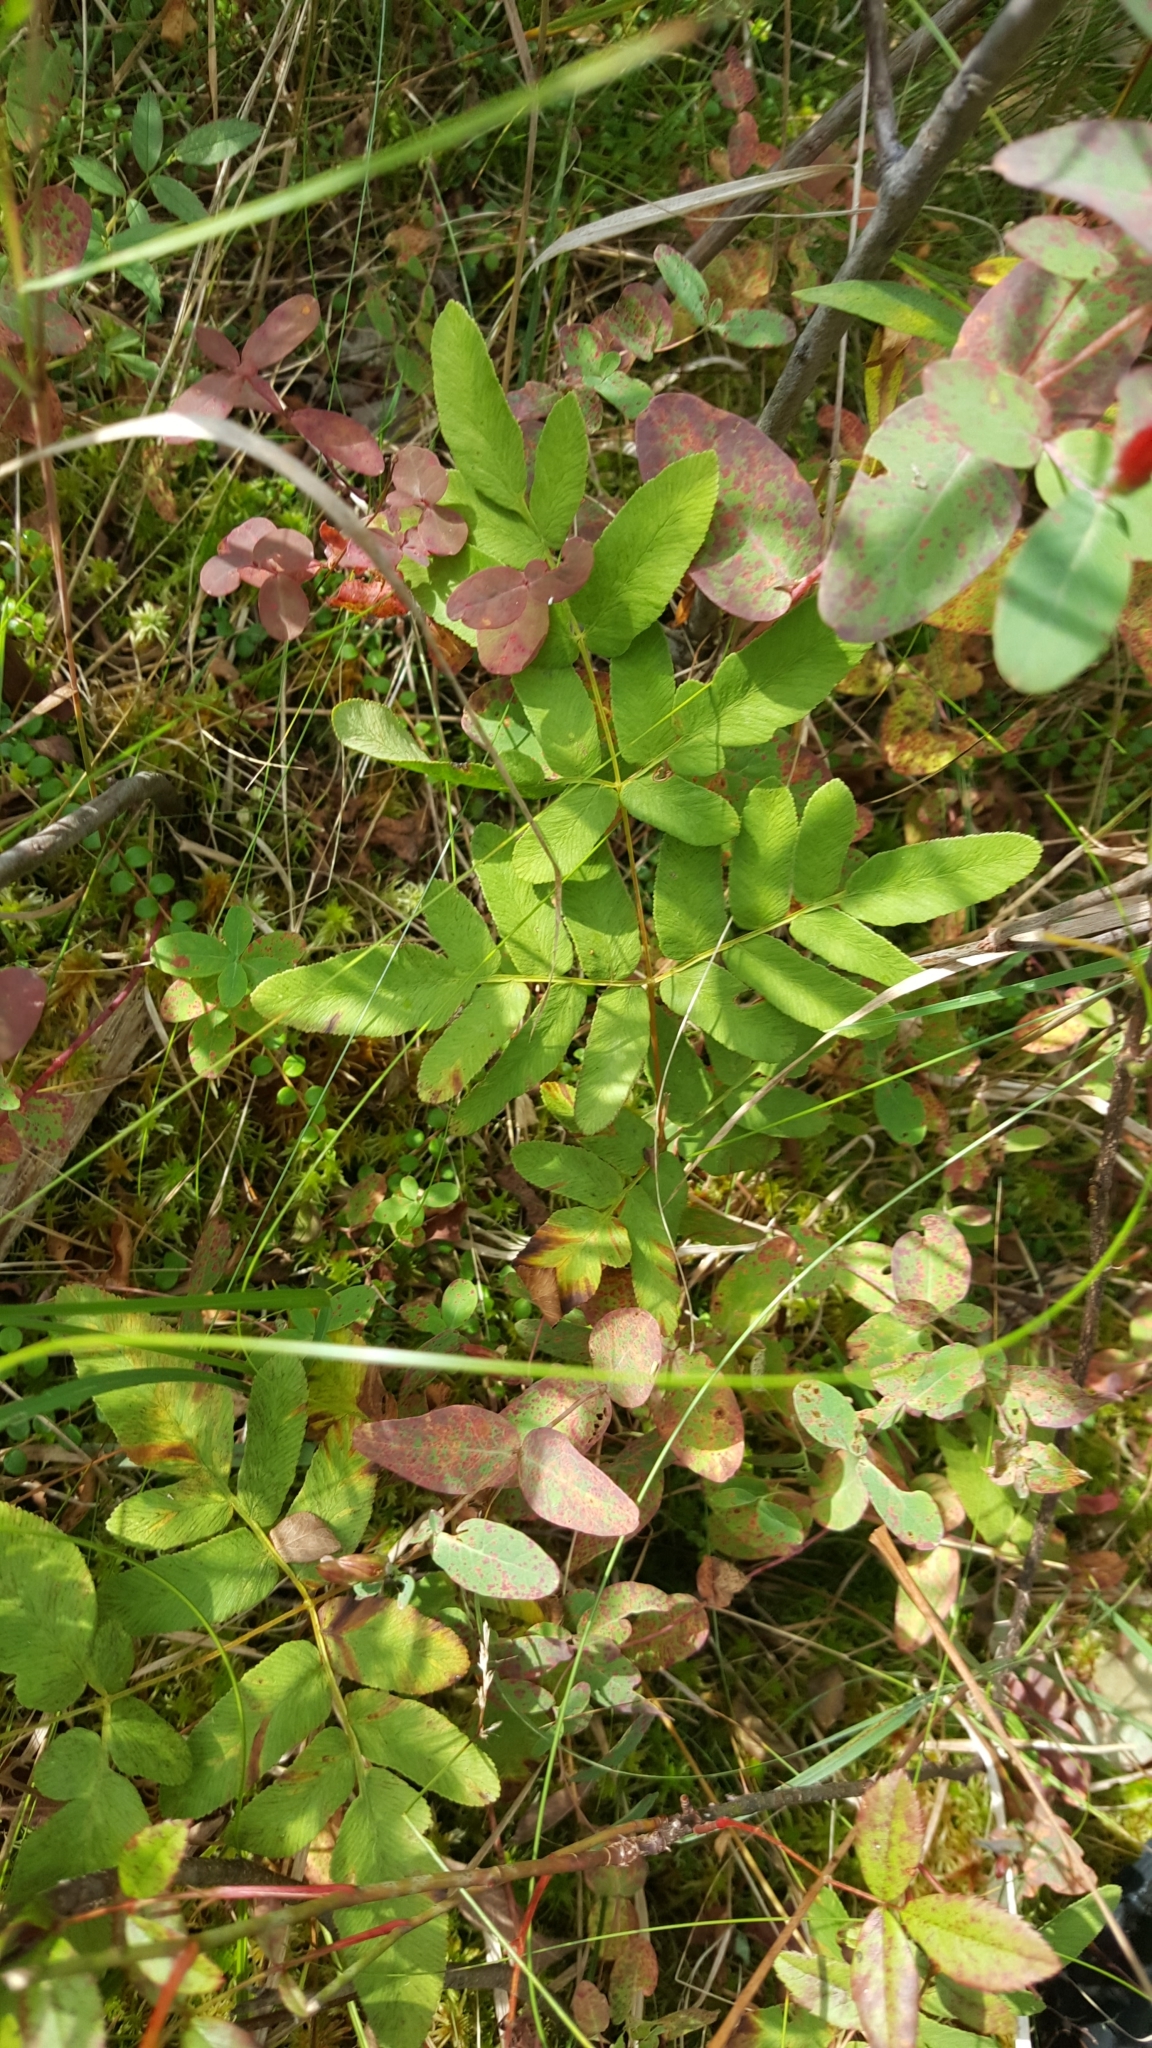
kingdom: Plantae
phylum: Tracheophyta
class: Polypodiopsida
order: Osmundales
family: Osmundaceae
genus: Osmunda
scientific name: Osmunda spectabilis
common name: American royal fern
